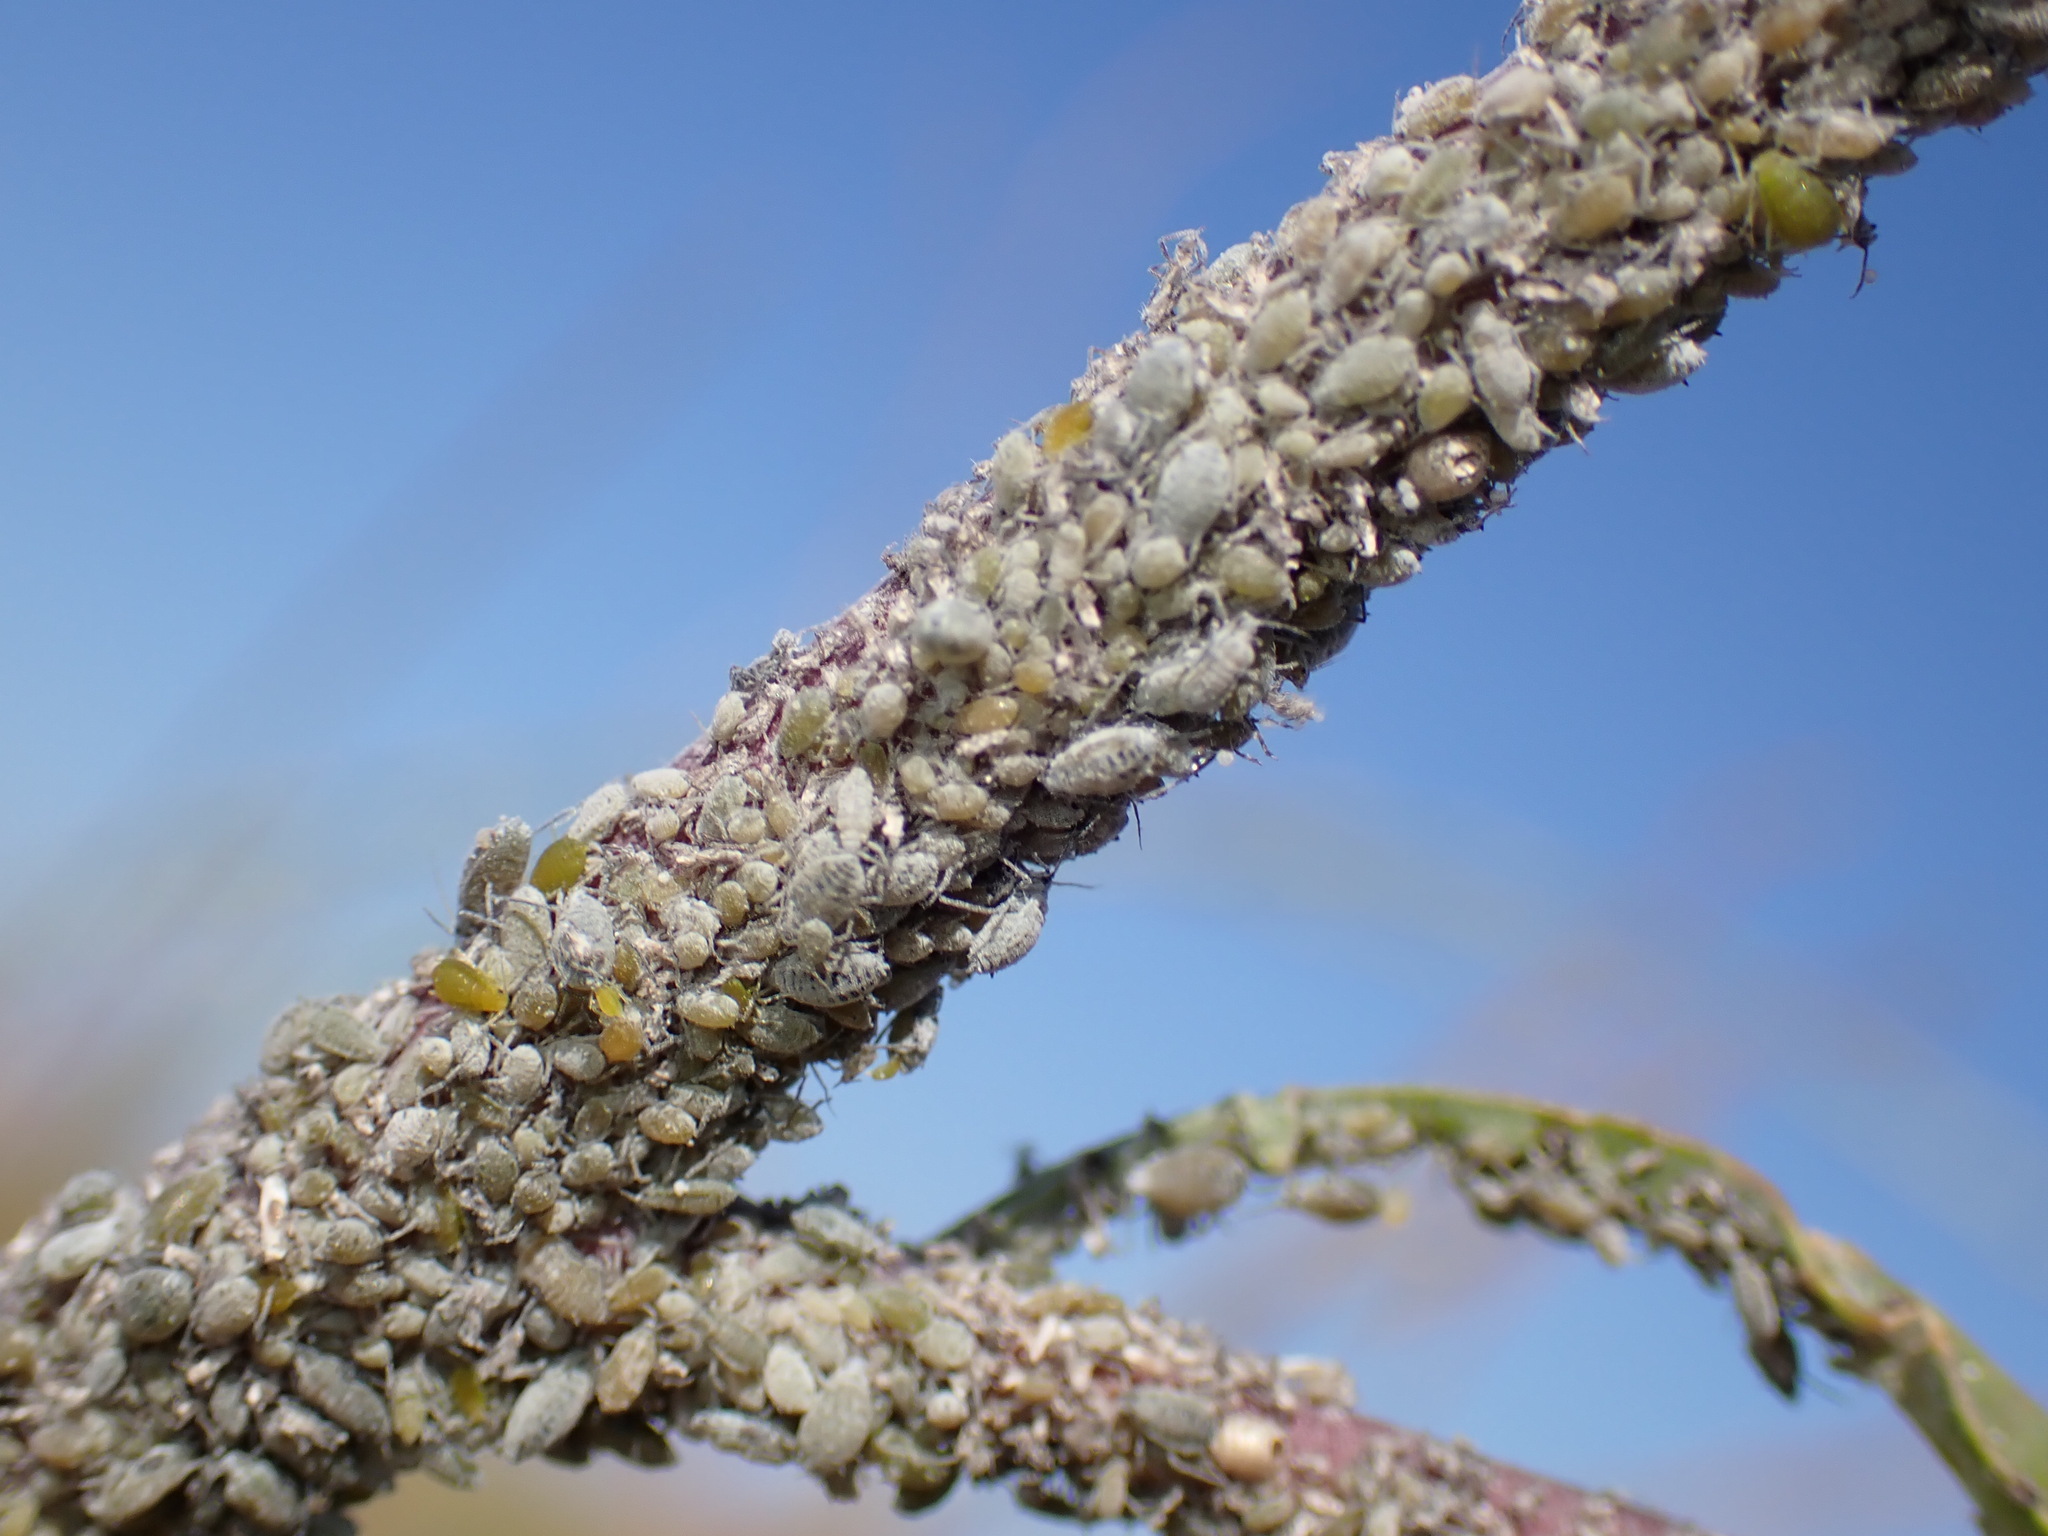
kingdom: Animalia
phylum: Arthropoda
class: Insecta
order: Hemiptera
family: Aphididae
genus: Brevicoryne
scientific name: Brevicoryne brassicae
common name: Cabbage aphid
